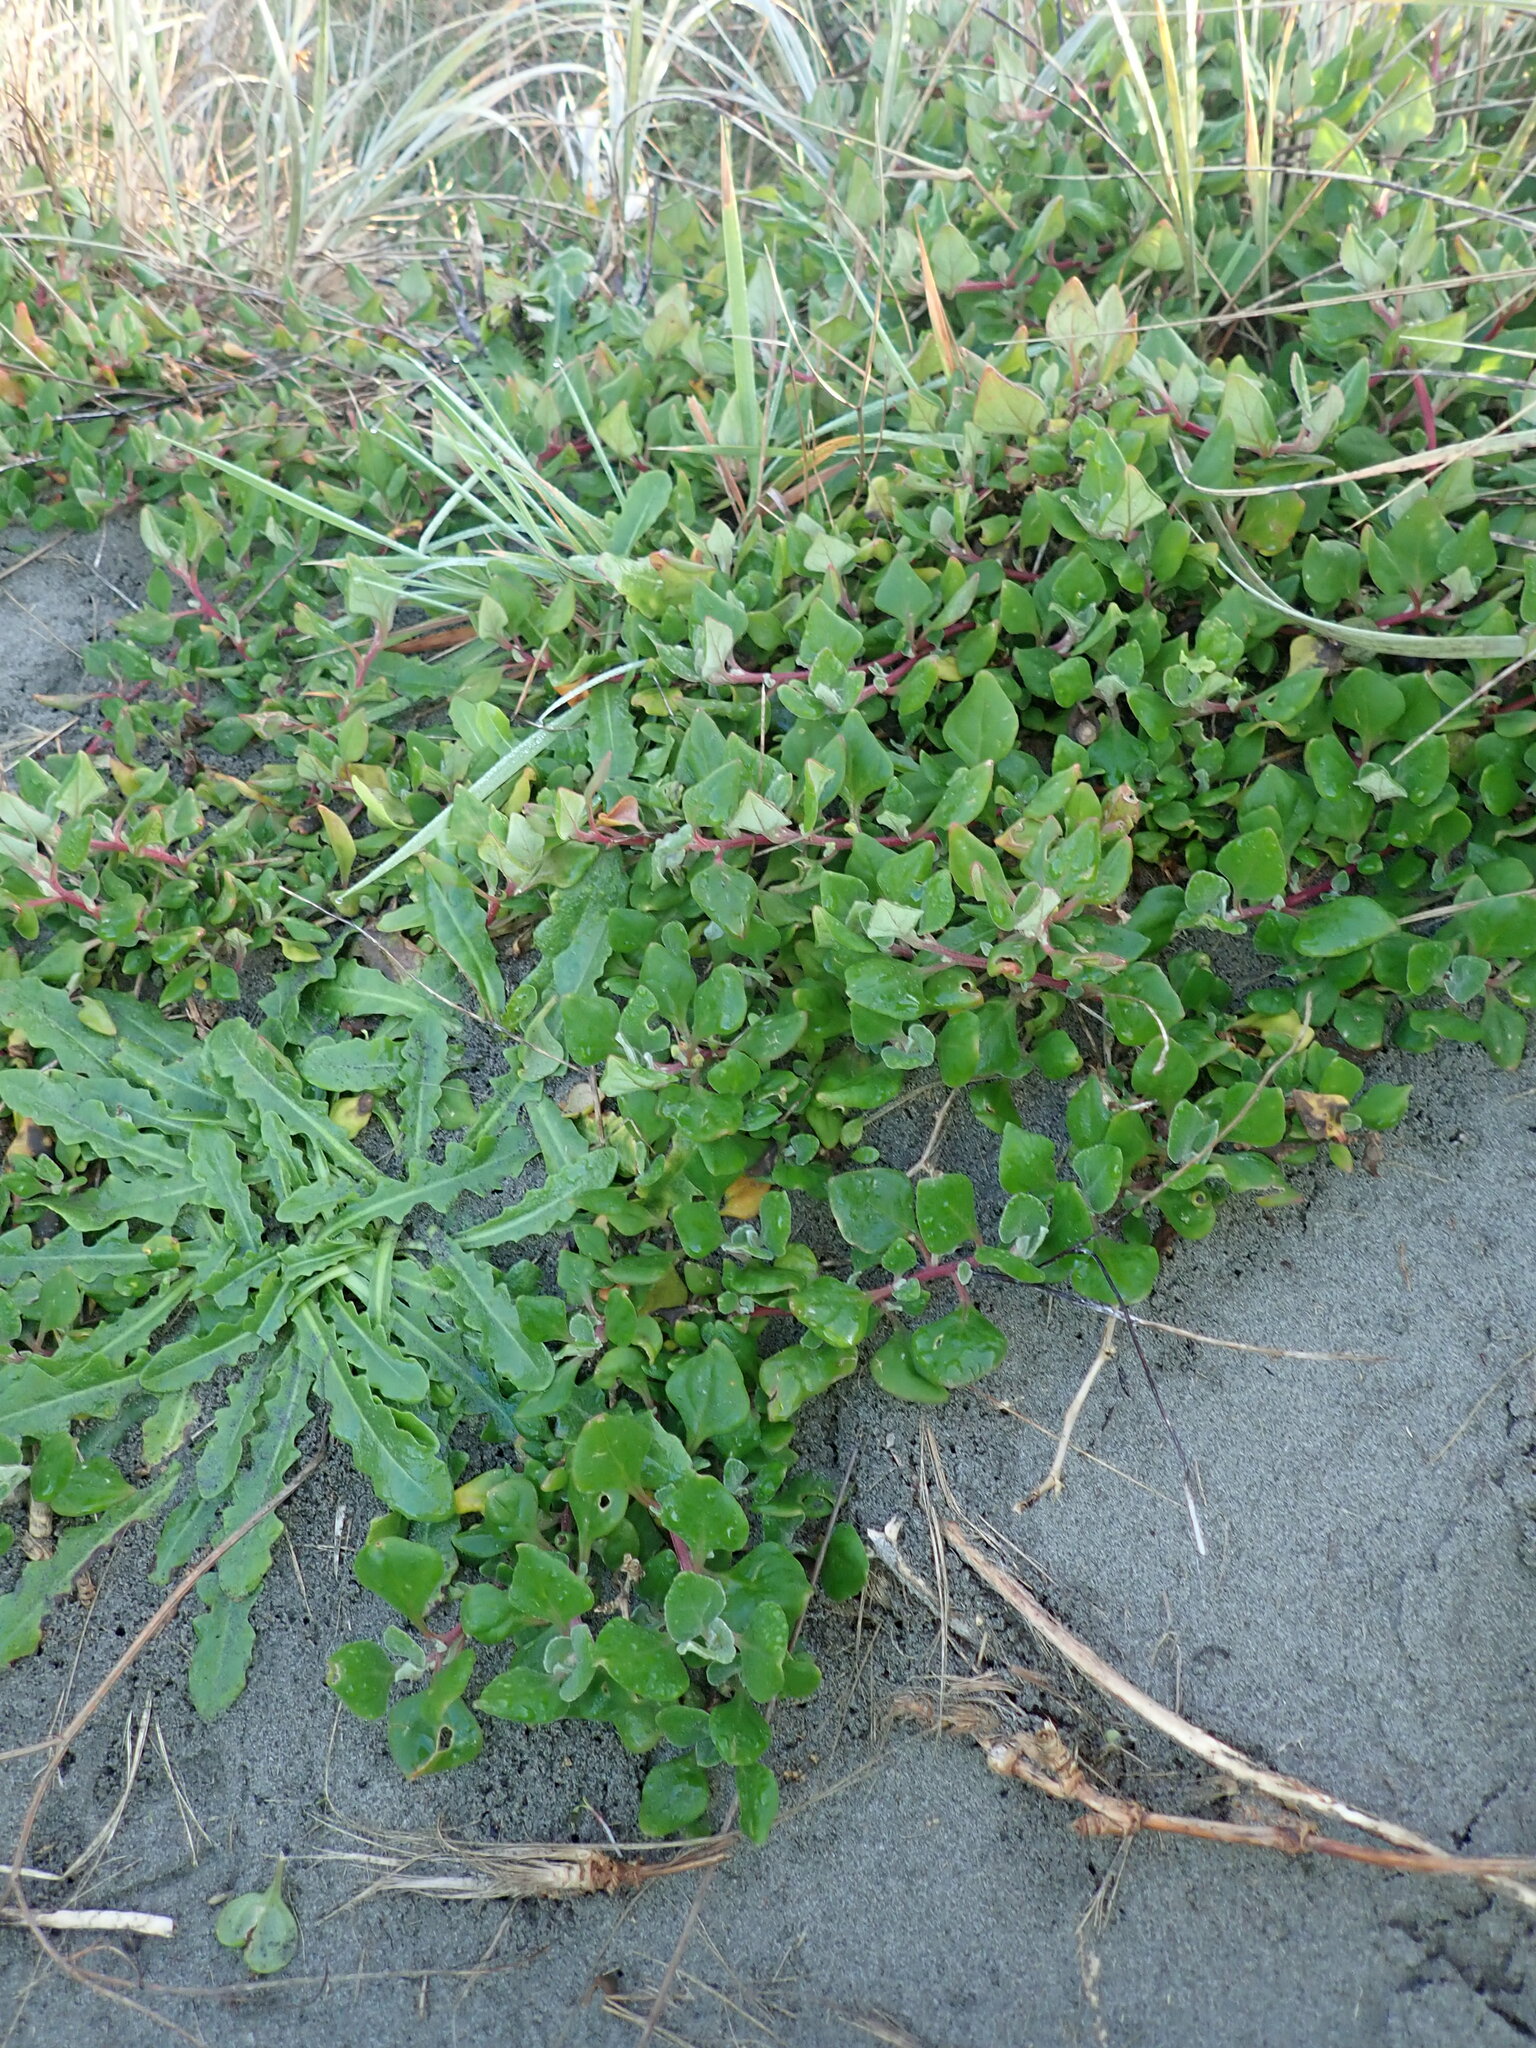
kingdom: Plantae
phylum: Tracheophyta
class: Magnoliopsida
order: Caryophyllales
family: Aizoaceae
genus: Tetragonia
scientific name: Tetragonia implexicoma
